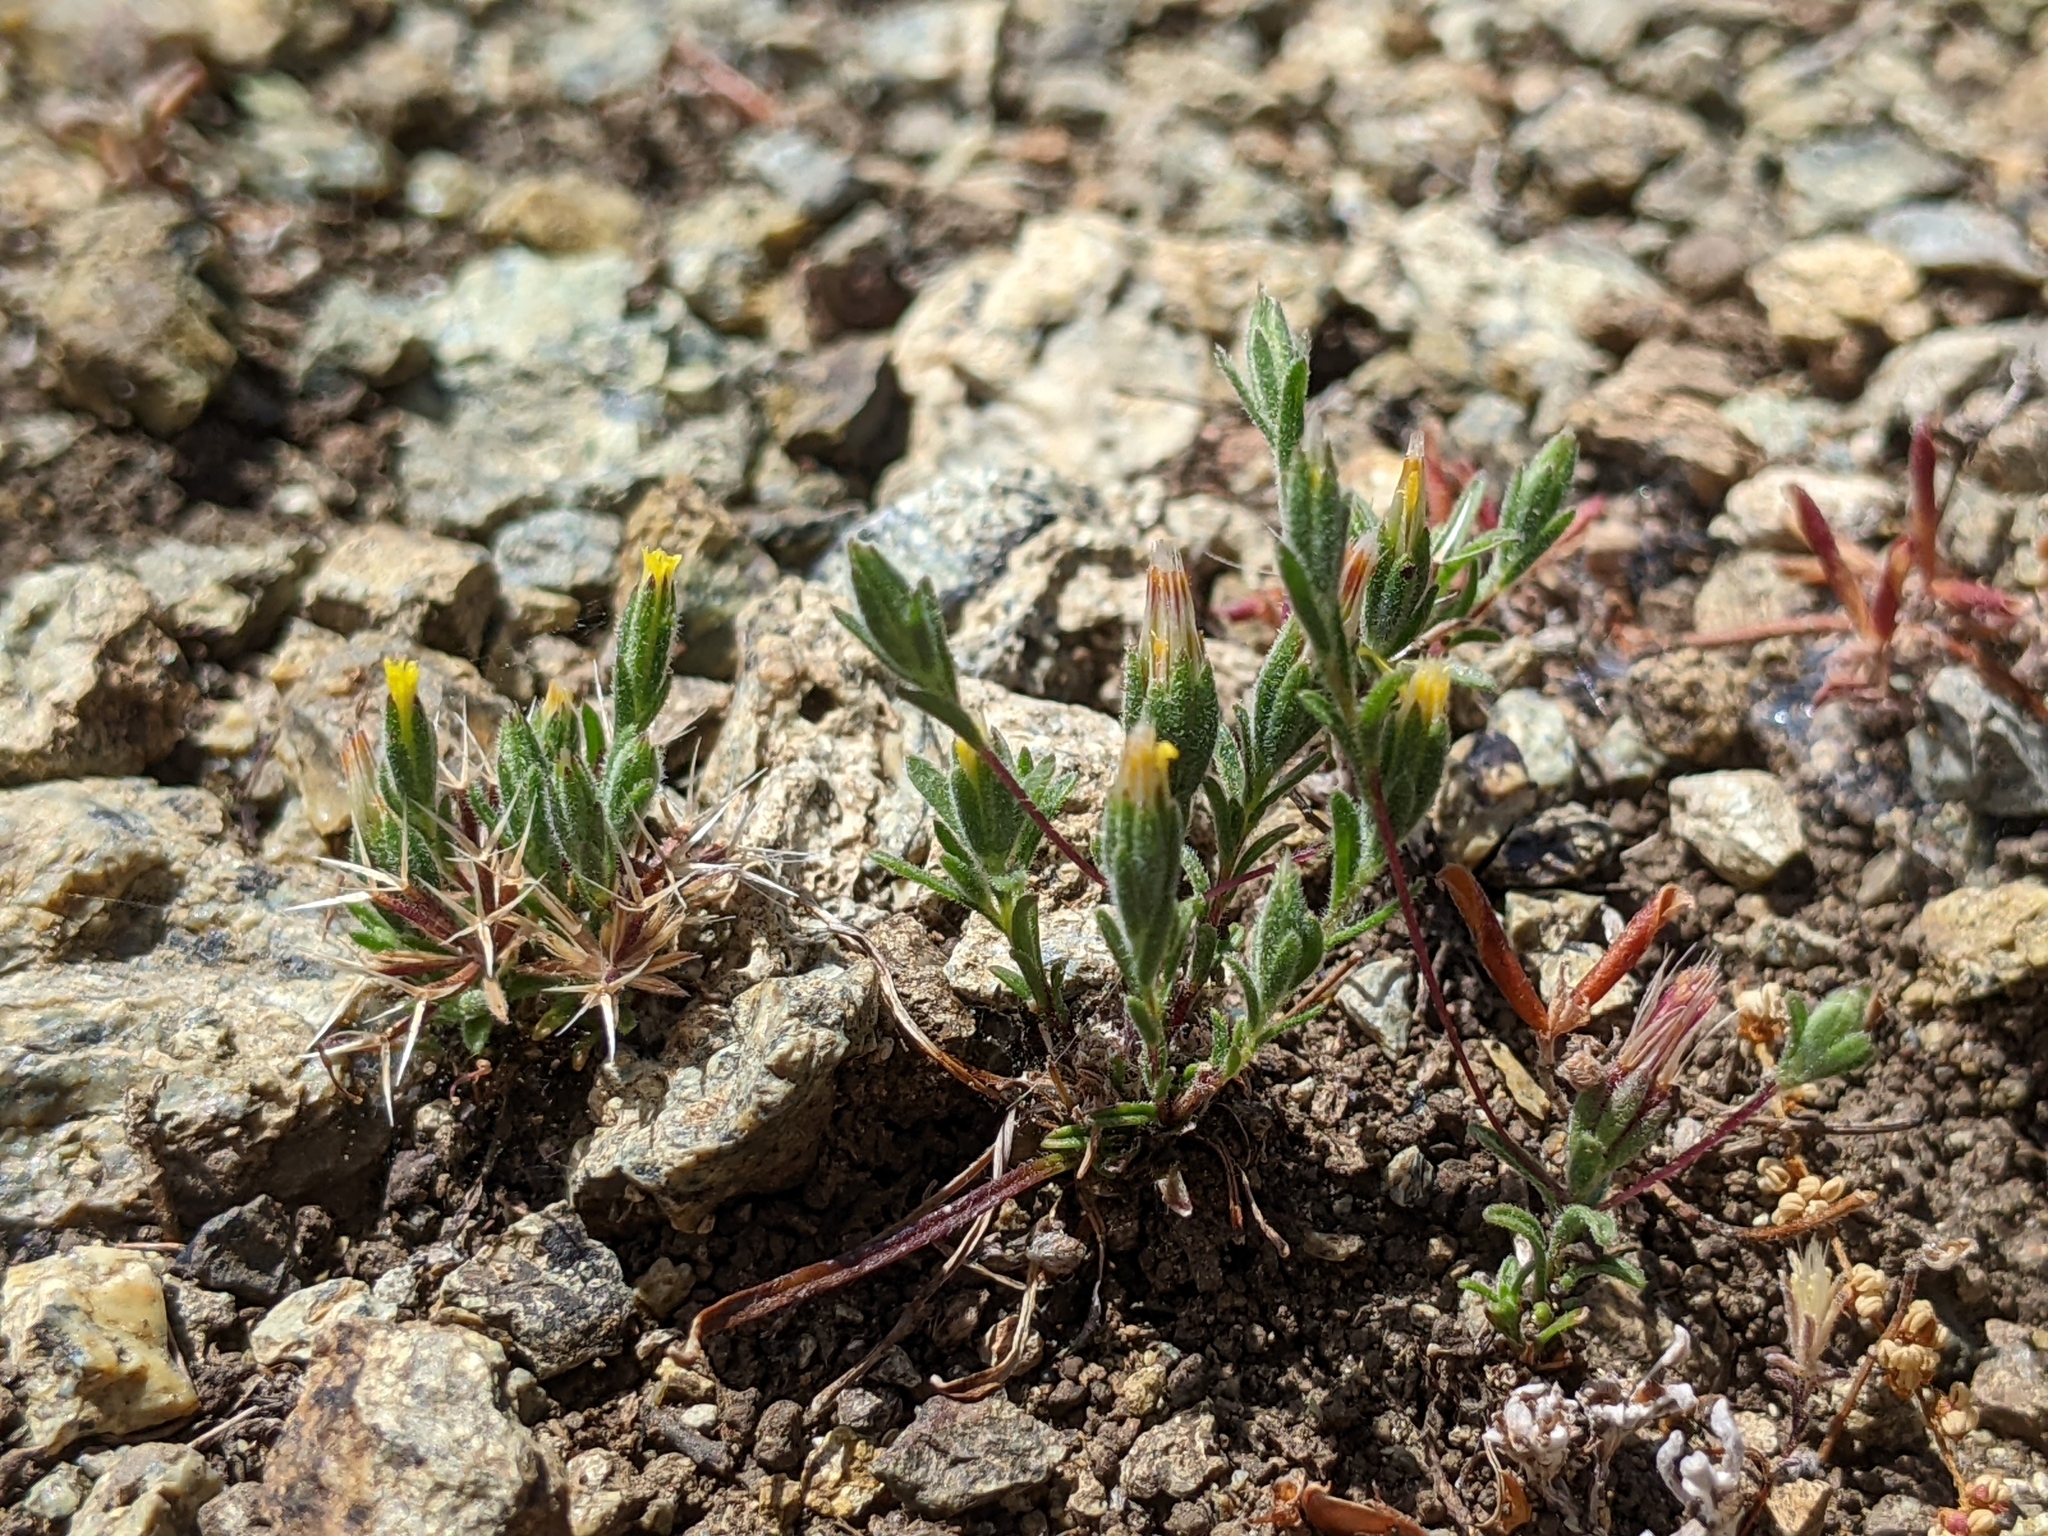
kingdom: Plantae
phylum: Tracheophyta
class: Magnoliopsida
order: Asterales
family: Asteraceae
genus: Rigiopappus
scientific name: Rigiopappus leptocladus
